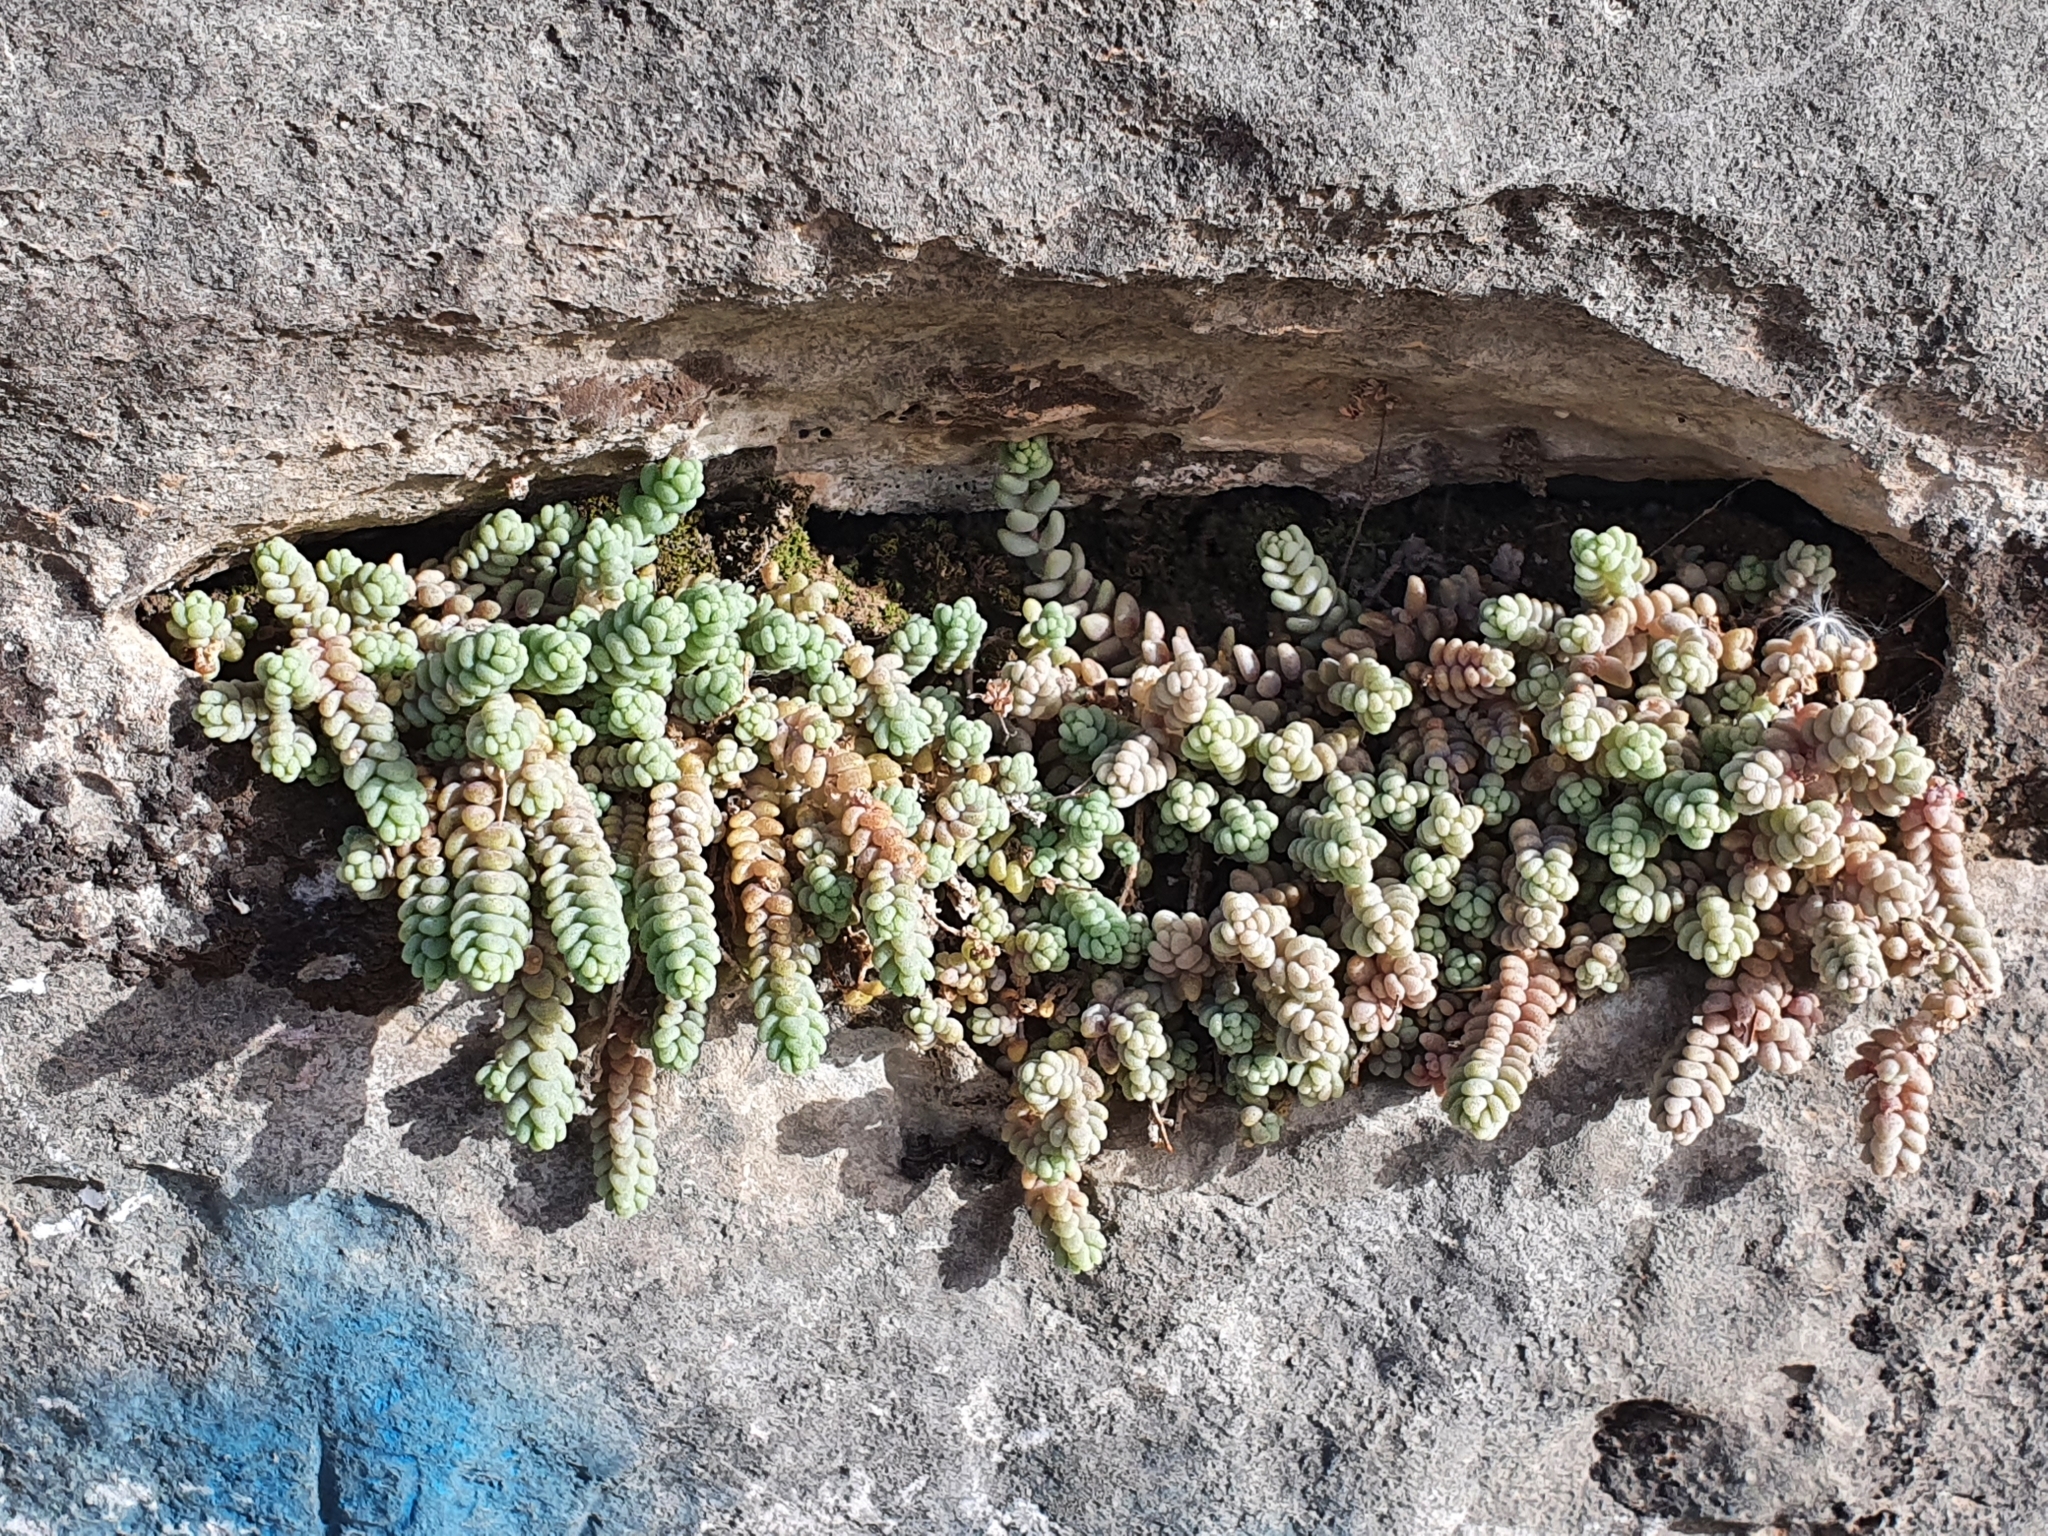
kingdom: Plantae
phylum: Tracheophyta
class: Magnoliopsida
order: Saxifragales
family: Crassulaceae
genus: Sedum
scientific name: Sedum dasyphyllum
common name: Thick-leaf stonecrop
